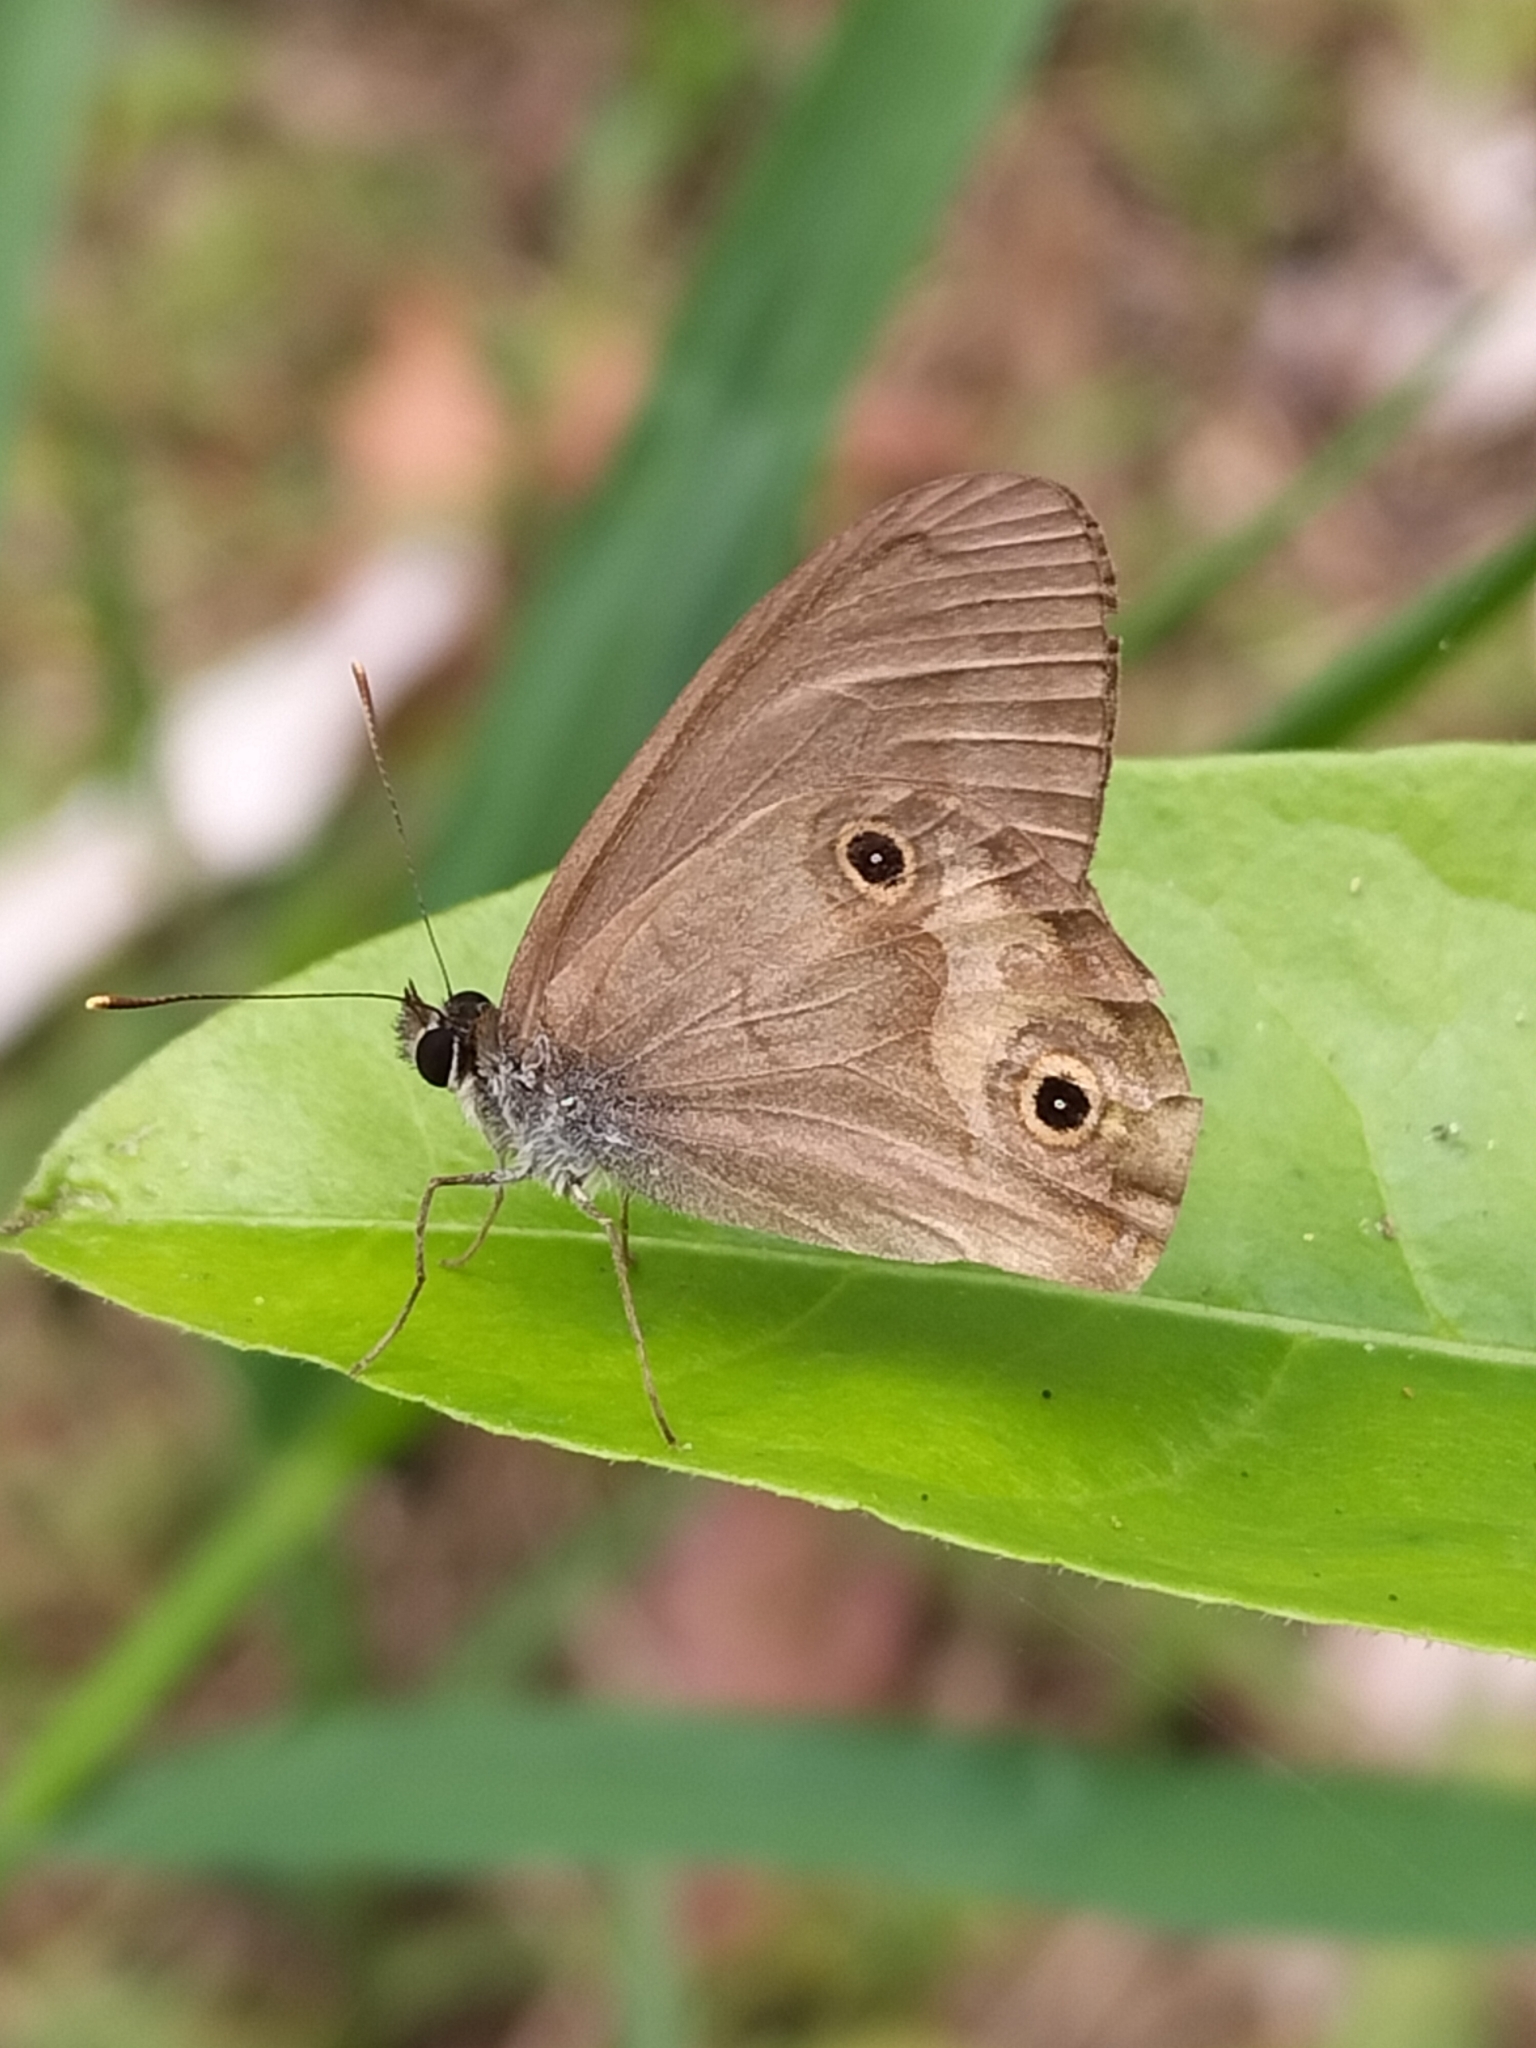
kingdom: Animalia
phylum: Arthropoda
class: Insecta
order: Lepidoptera
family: Nymphalidae
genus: Hypocysta
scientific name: Hypocysta metirius
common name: Brown ringlet
